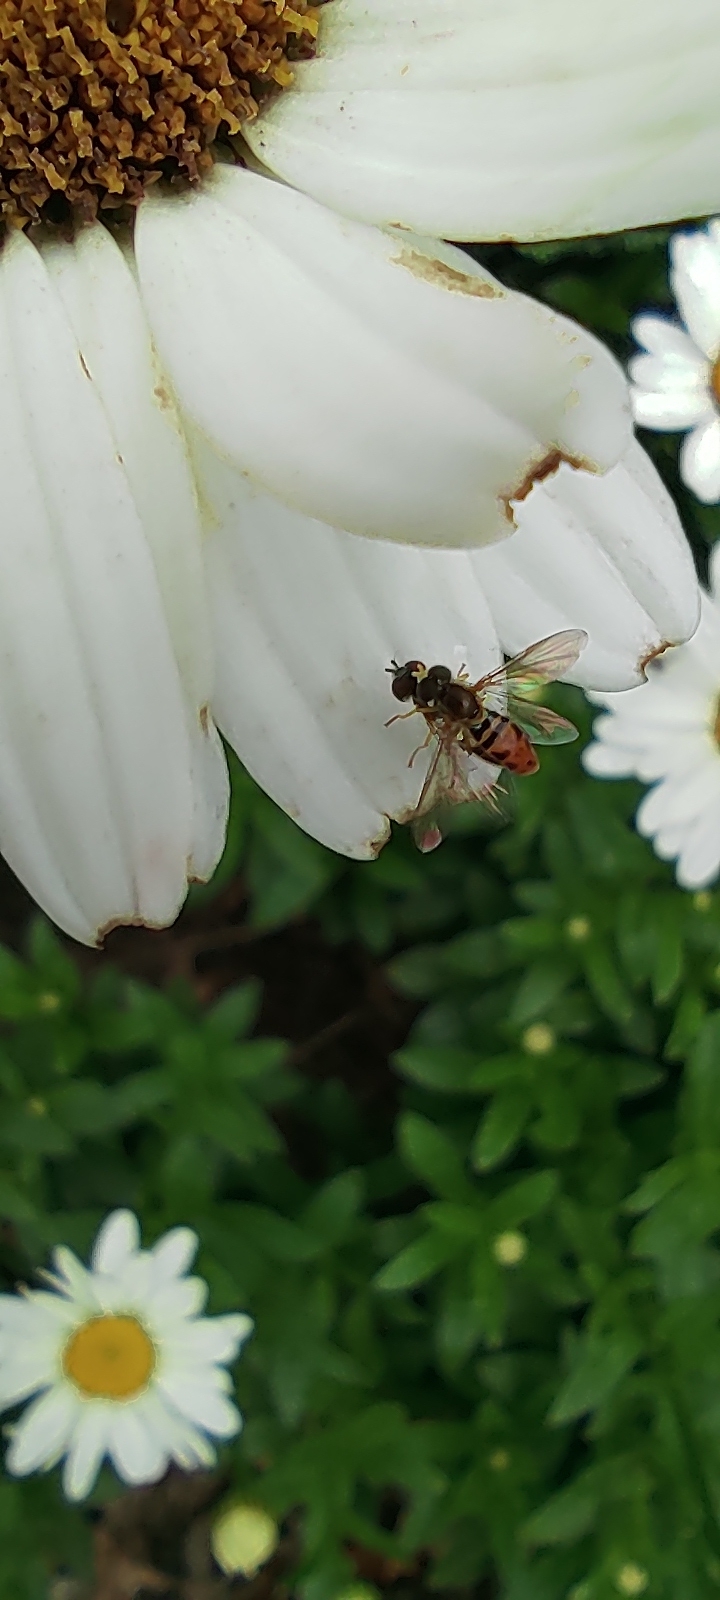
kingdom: Animalia
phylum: Arthropoda
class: Insecta
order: Diptera
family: Syrphidae
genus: Toxomerus
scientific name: Toxomerus marginatus
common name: Syrphid fly
